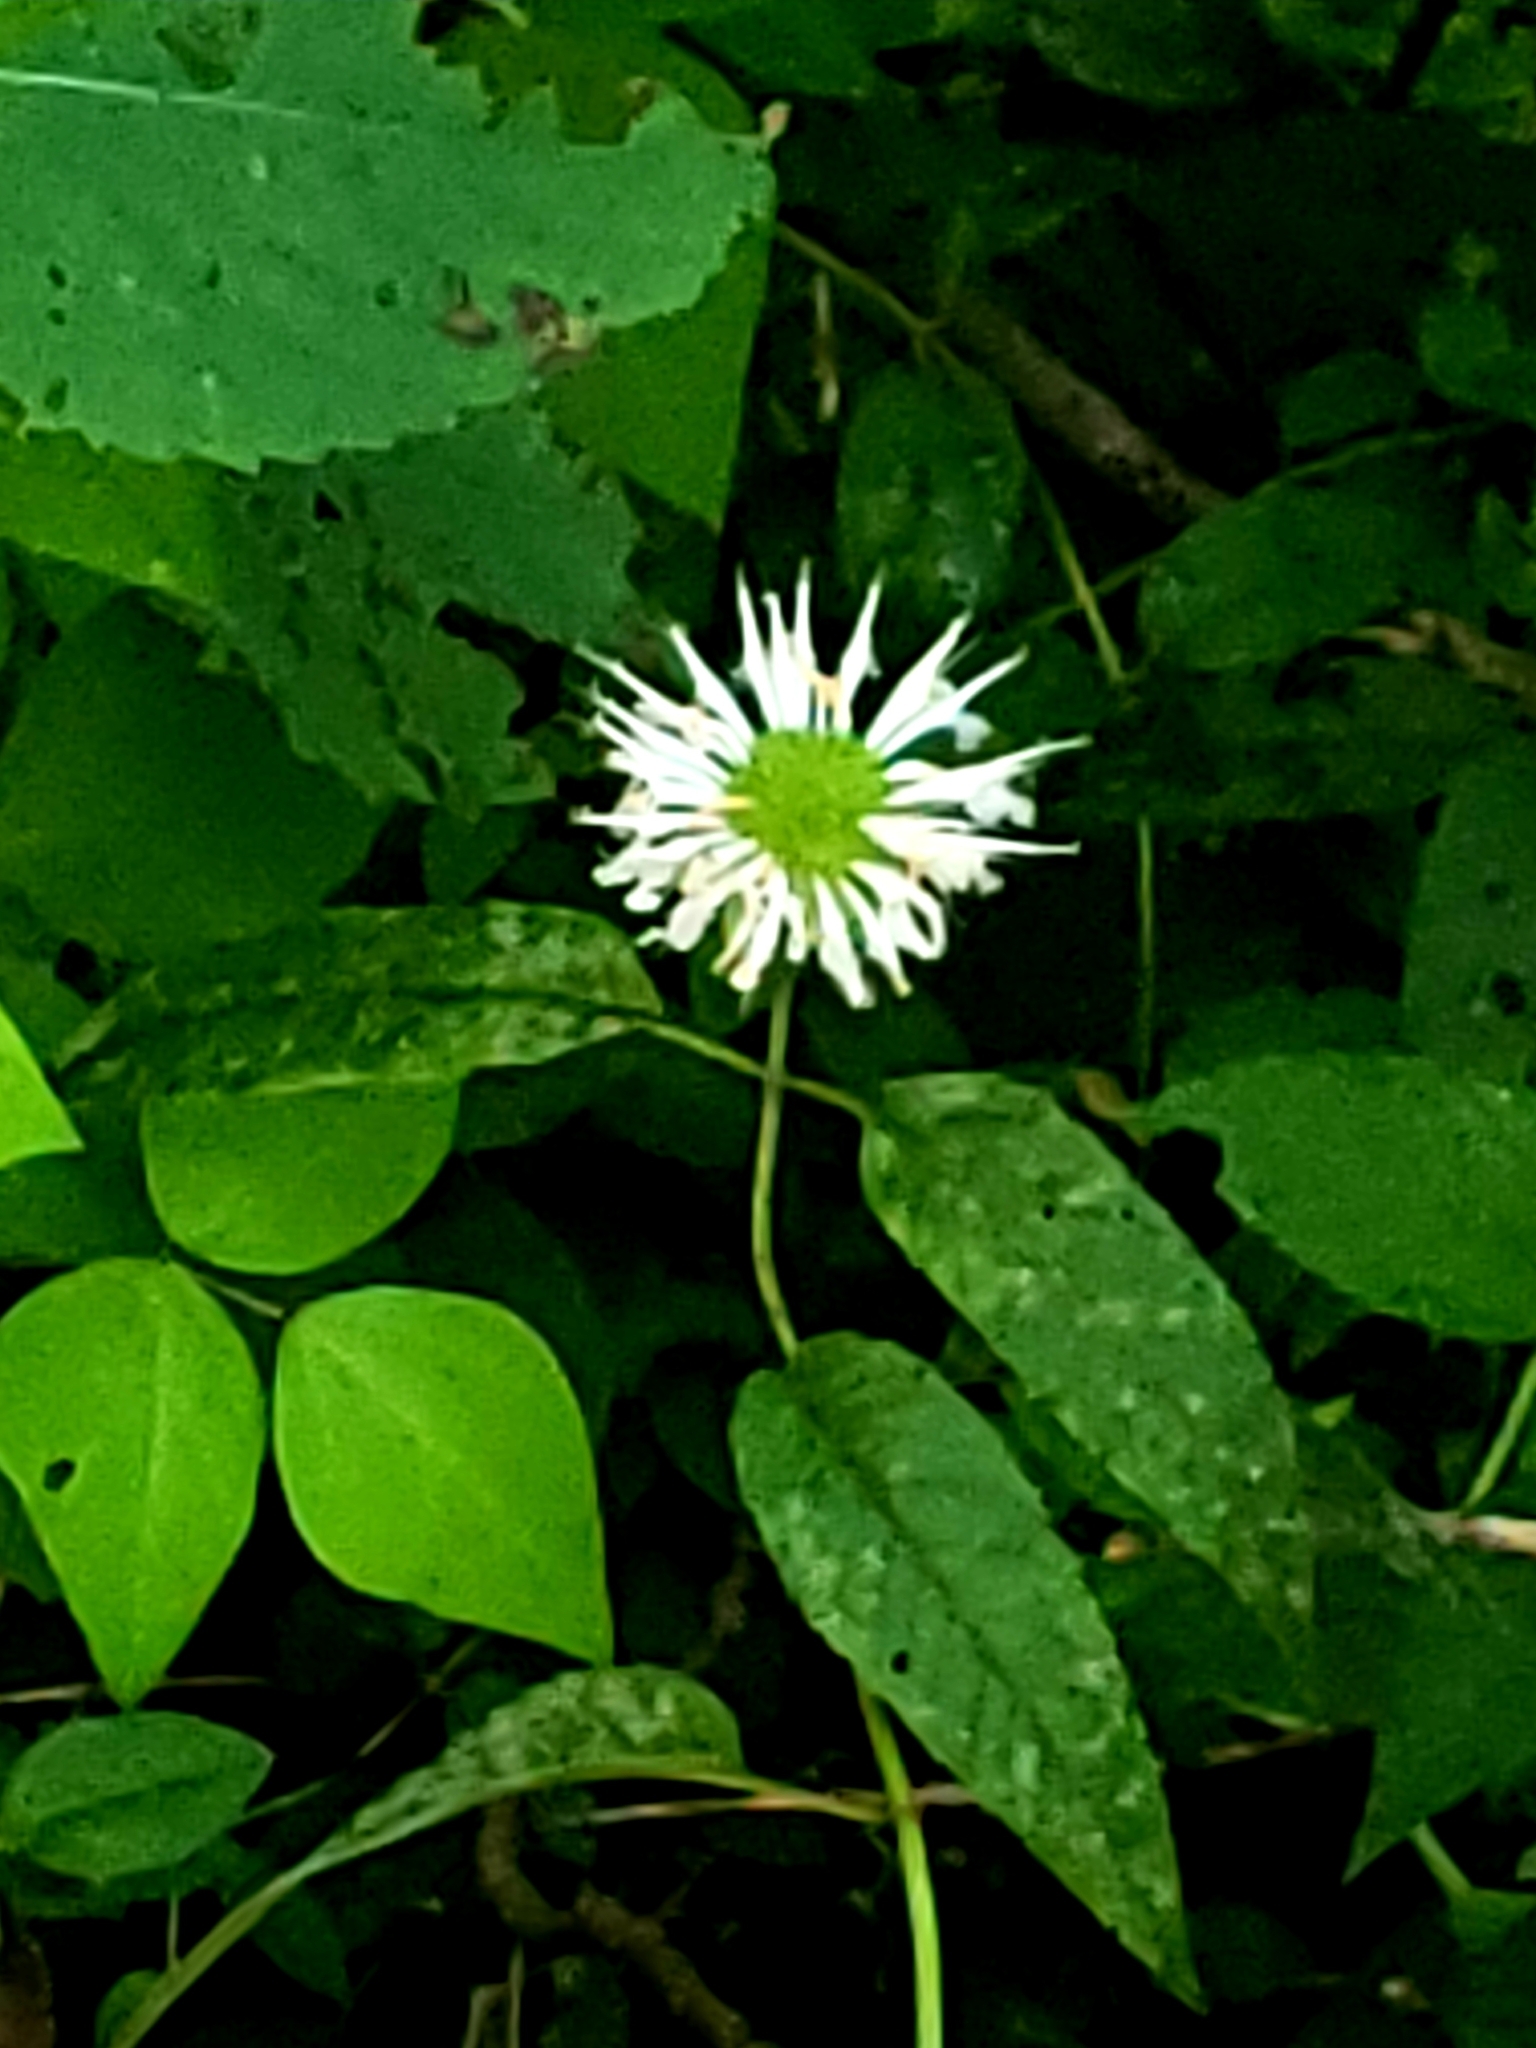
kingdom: Plantae
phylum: Tracheophyta
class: Magnoliopsida
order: Lamiales
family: Lamiaceae
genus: Monarda
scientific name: Monarda clinopodia
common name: Basil beebalm
